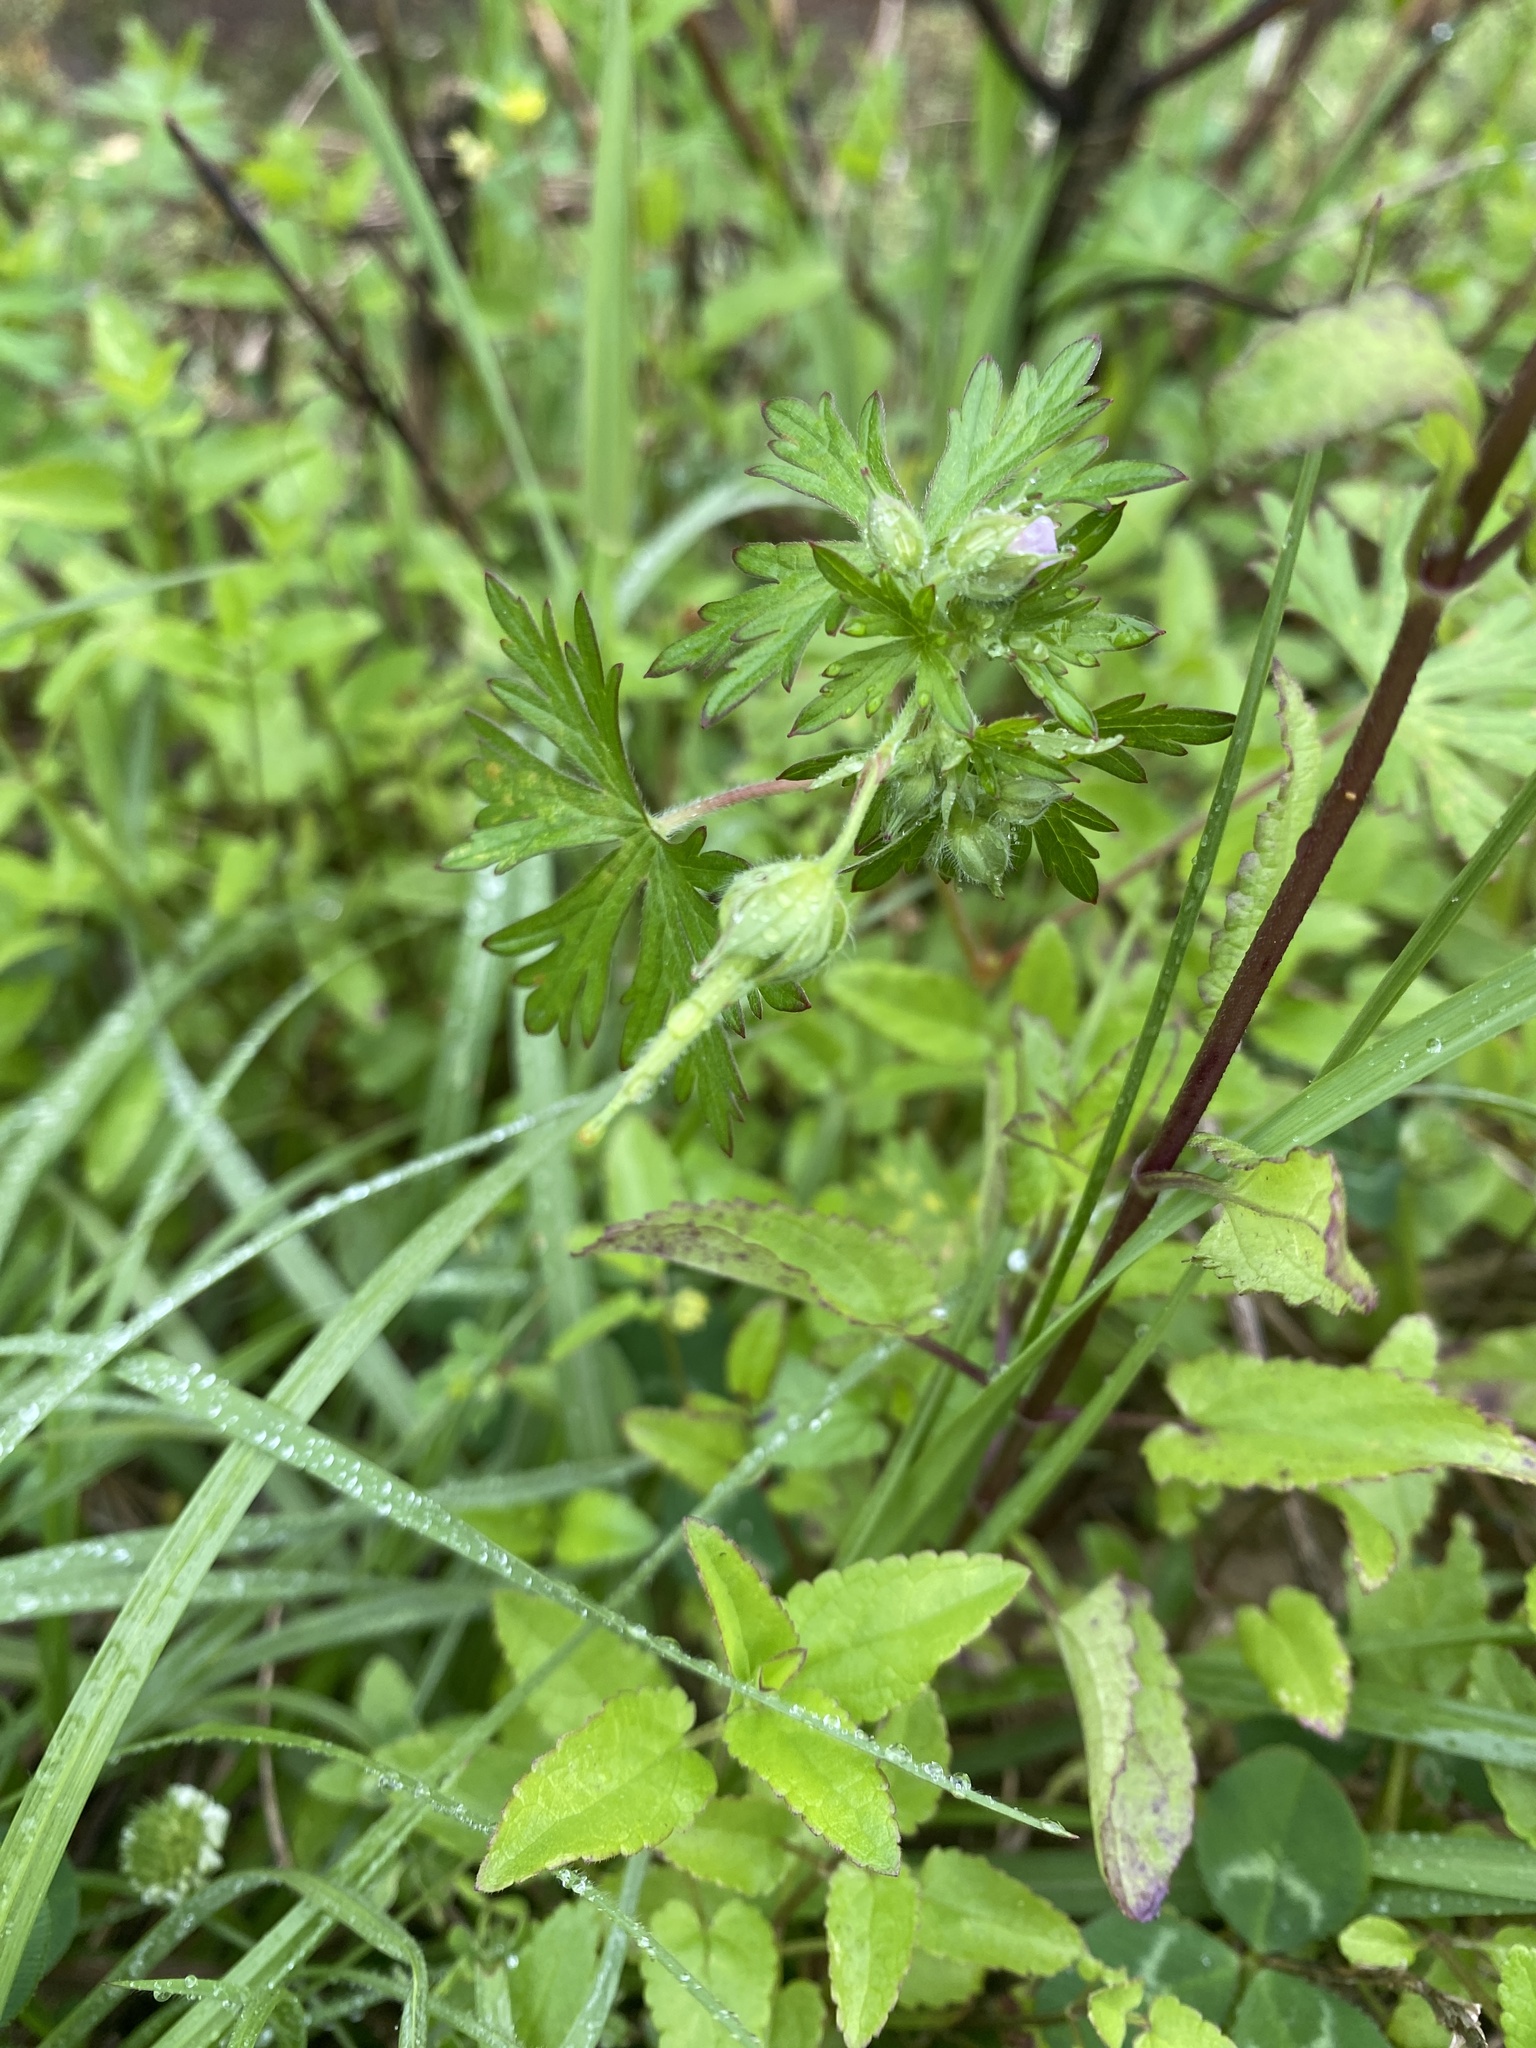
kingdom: Plantae
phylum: Tracheophyta
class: Magnoliopsida
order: Geraniales
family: Geraniaceae
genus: Geranium
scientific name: Geranium carolinianum
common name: Carolina crane's-bill
